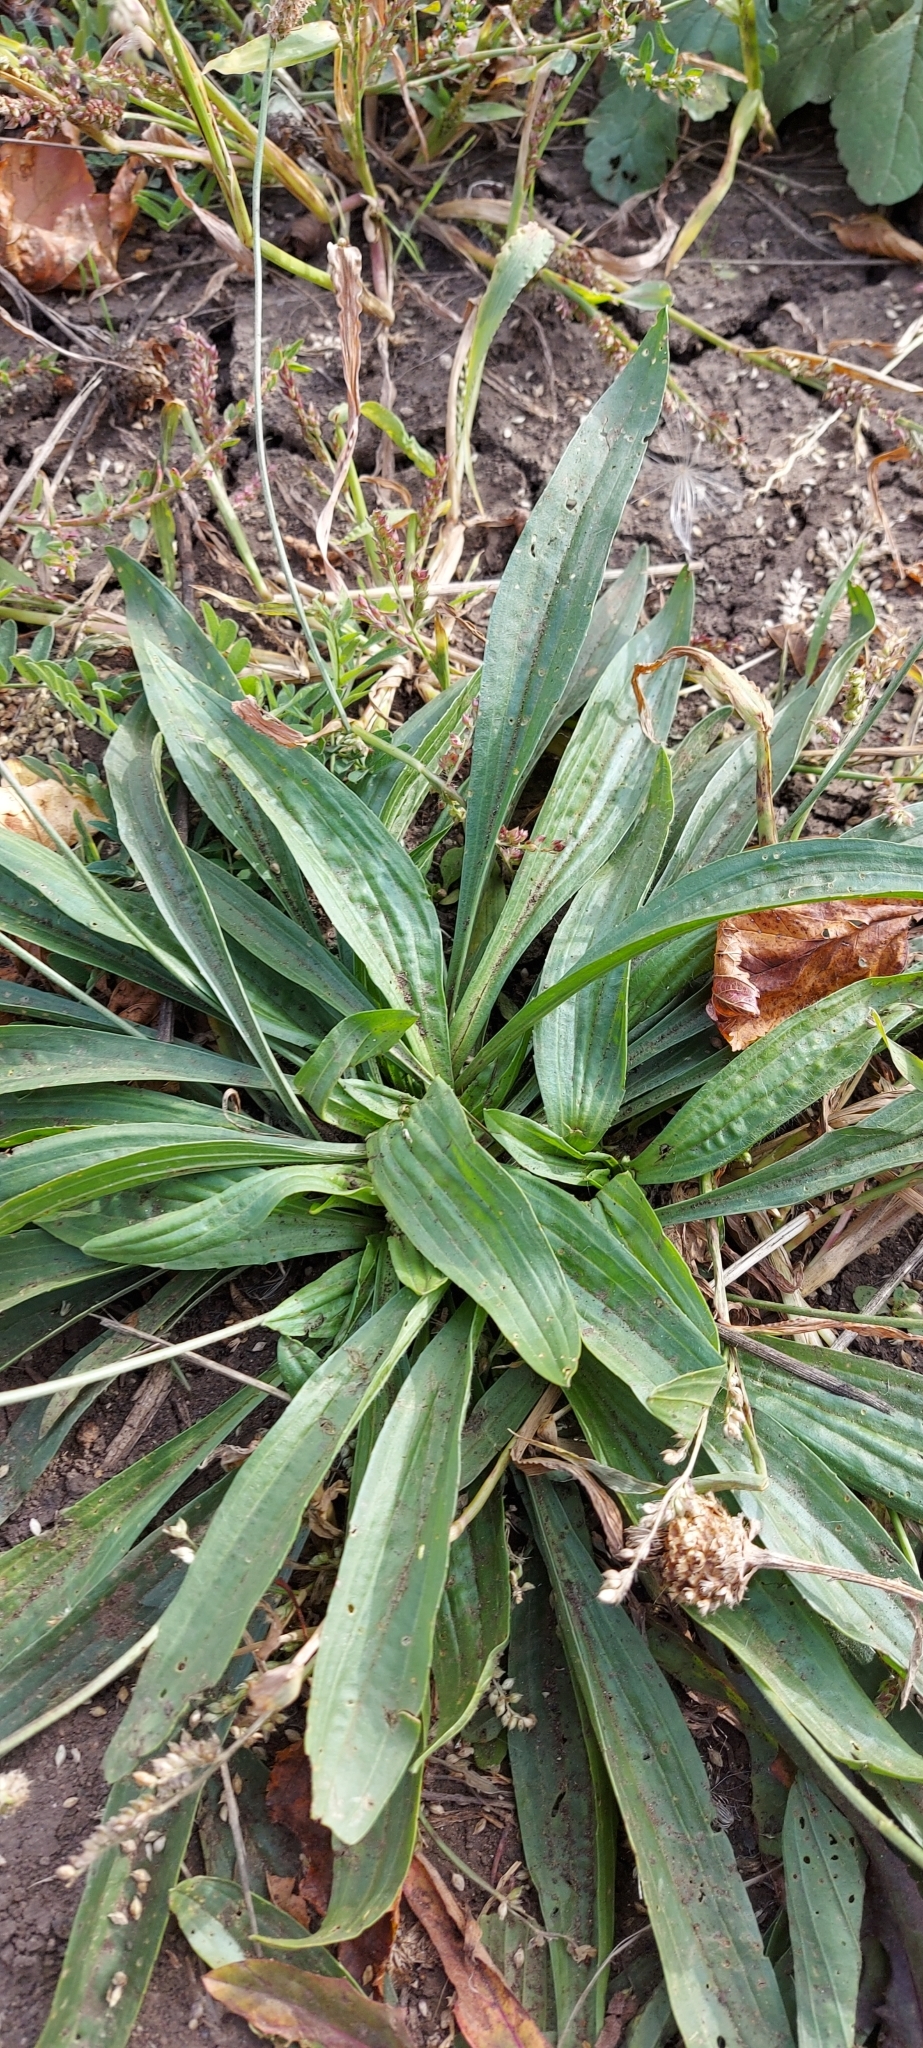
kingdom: Plantae
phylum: Tracheophyta
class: Magnoliopsida
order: Lamiales
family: Plantaginaceae
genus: Plantago
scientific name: Plantago lanceolata
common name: Ribwort plantain
